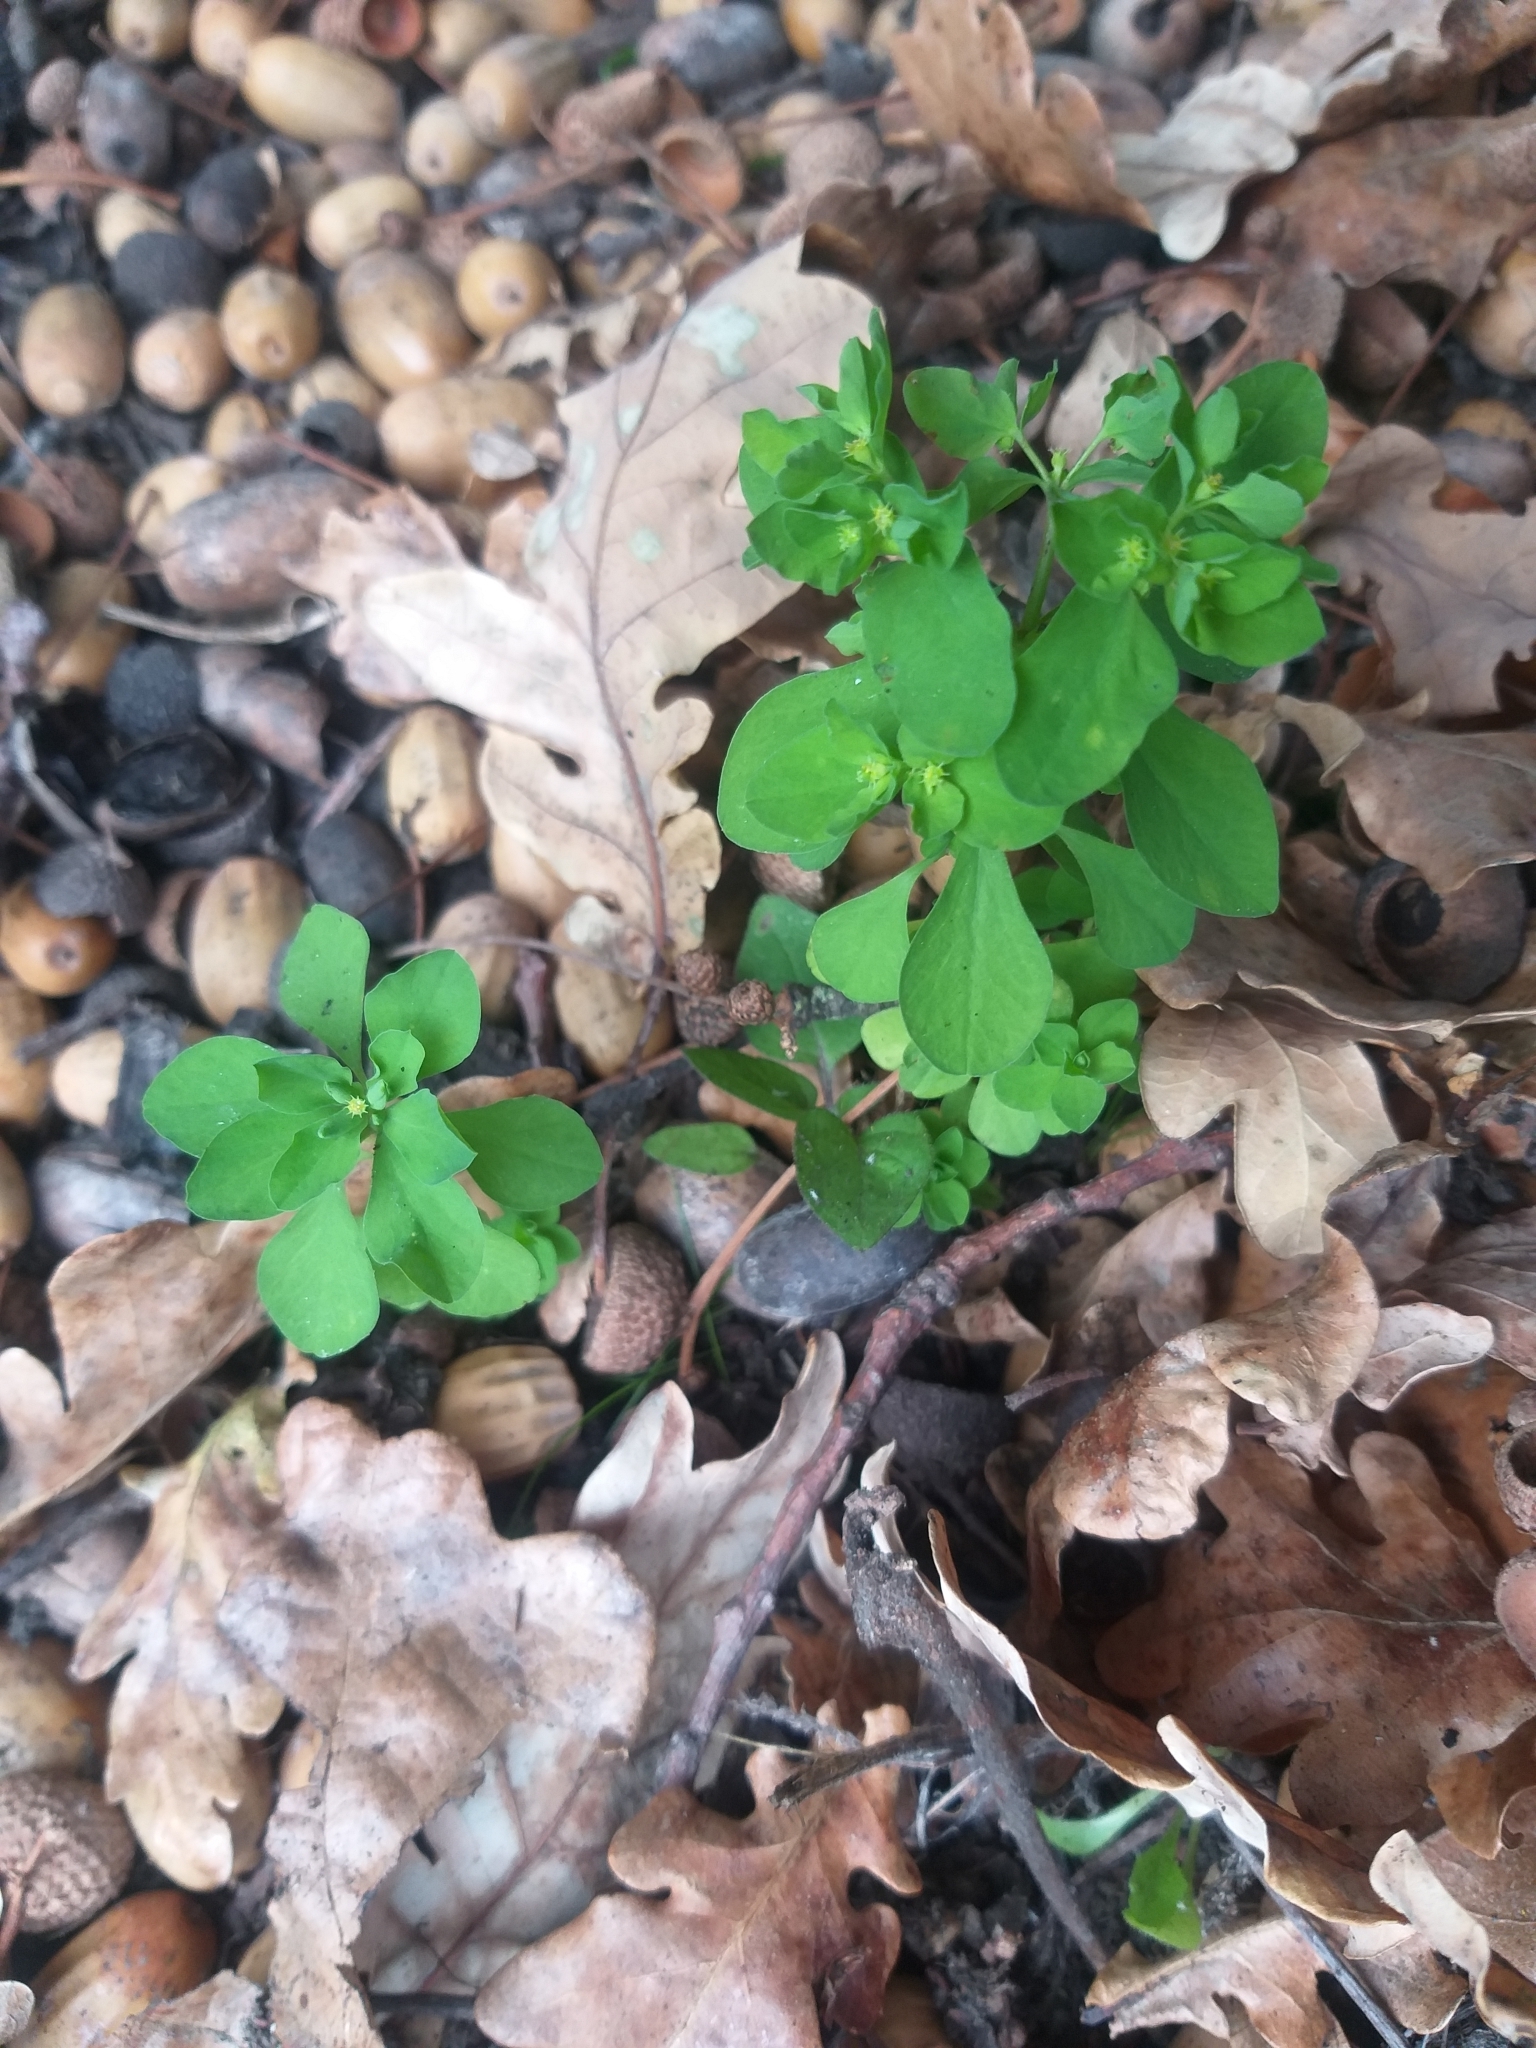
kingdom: Plantae
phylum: Tracheophyta
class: Magnoliopsida
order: Malpighiales
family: Euphorbiaceae
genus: Euphorbia
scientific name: Euphorbia peplus
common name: Petty spurge
